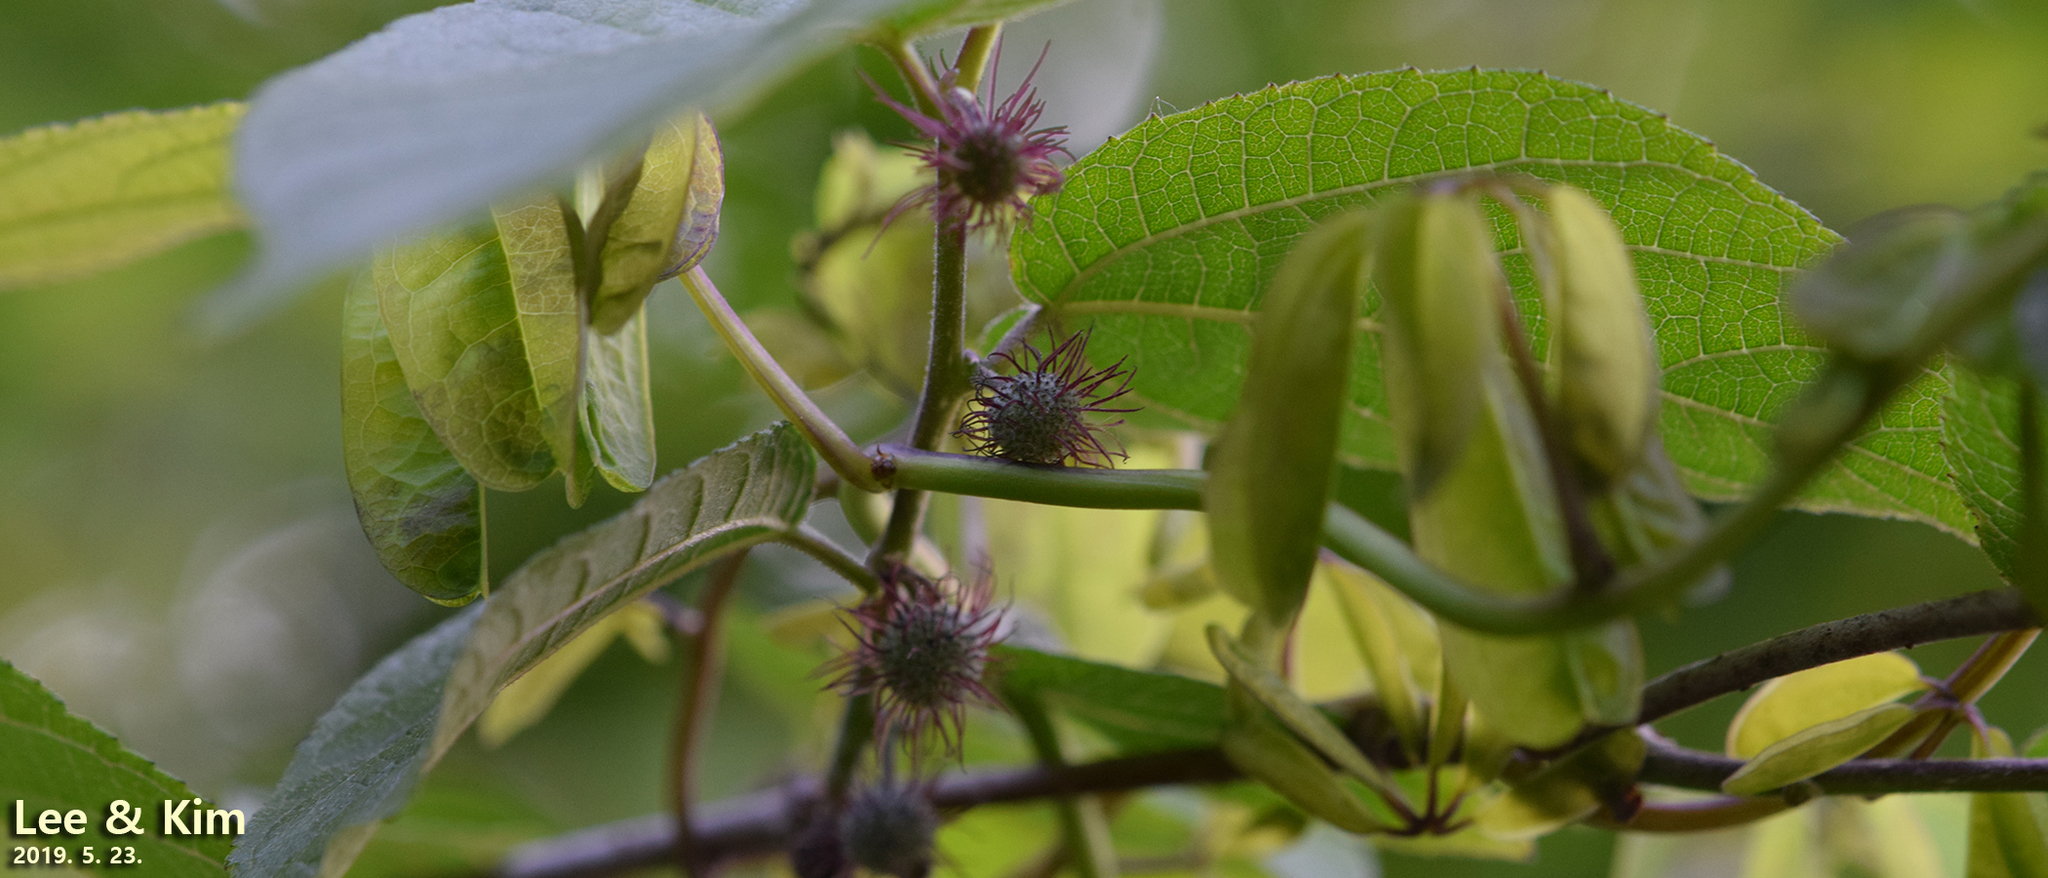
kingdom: Plantae
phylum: Tracheophyta
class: Magnoliopsida
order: Rosales
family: Moraceae
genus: Broussonetia
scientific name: Broussonetia papyrifera
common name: Paper mulberry
